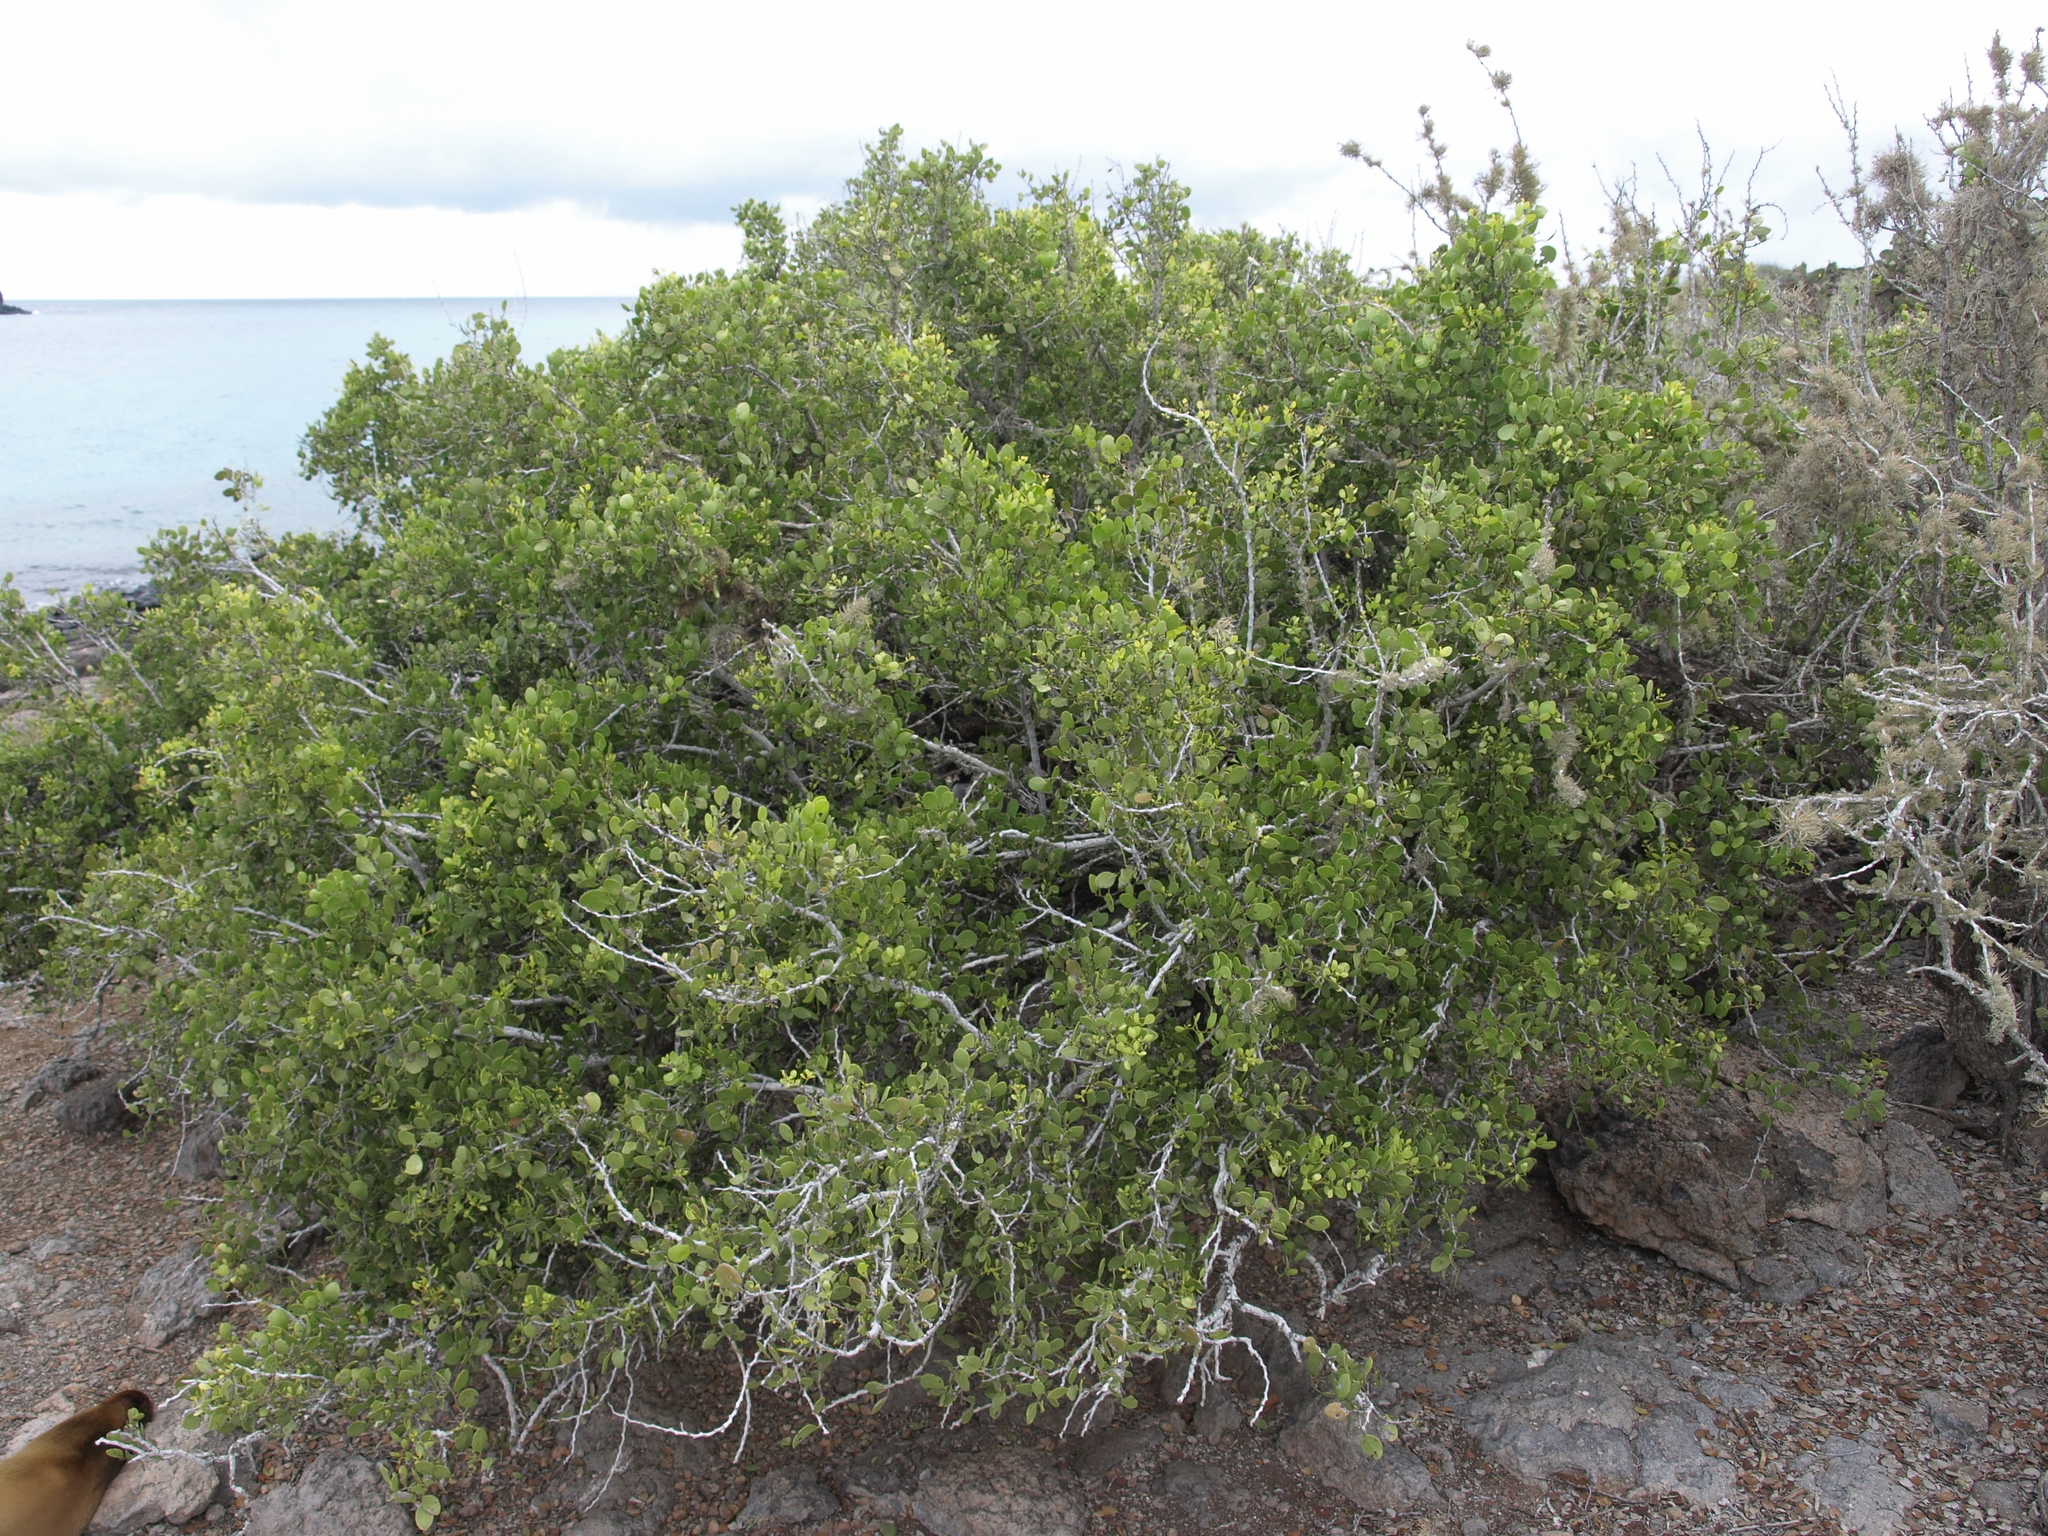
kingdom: Plantae
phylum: Tracheophyta
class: Magnoliopsida
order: Celastrales
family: Celastraceae
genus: Tricerma
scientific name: Tricerma octogonum
